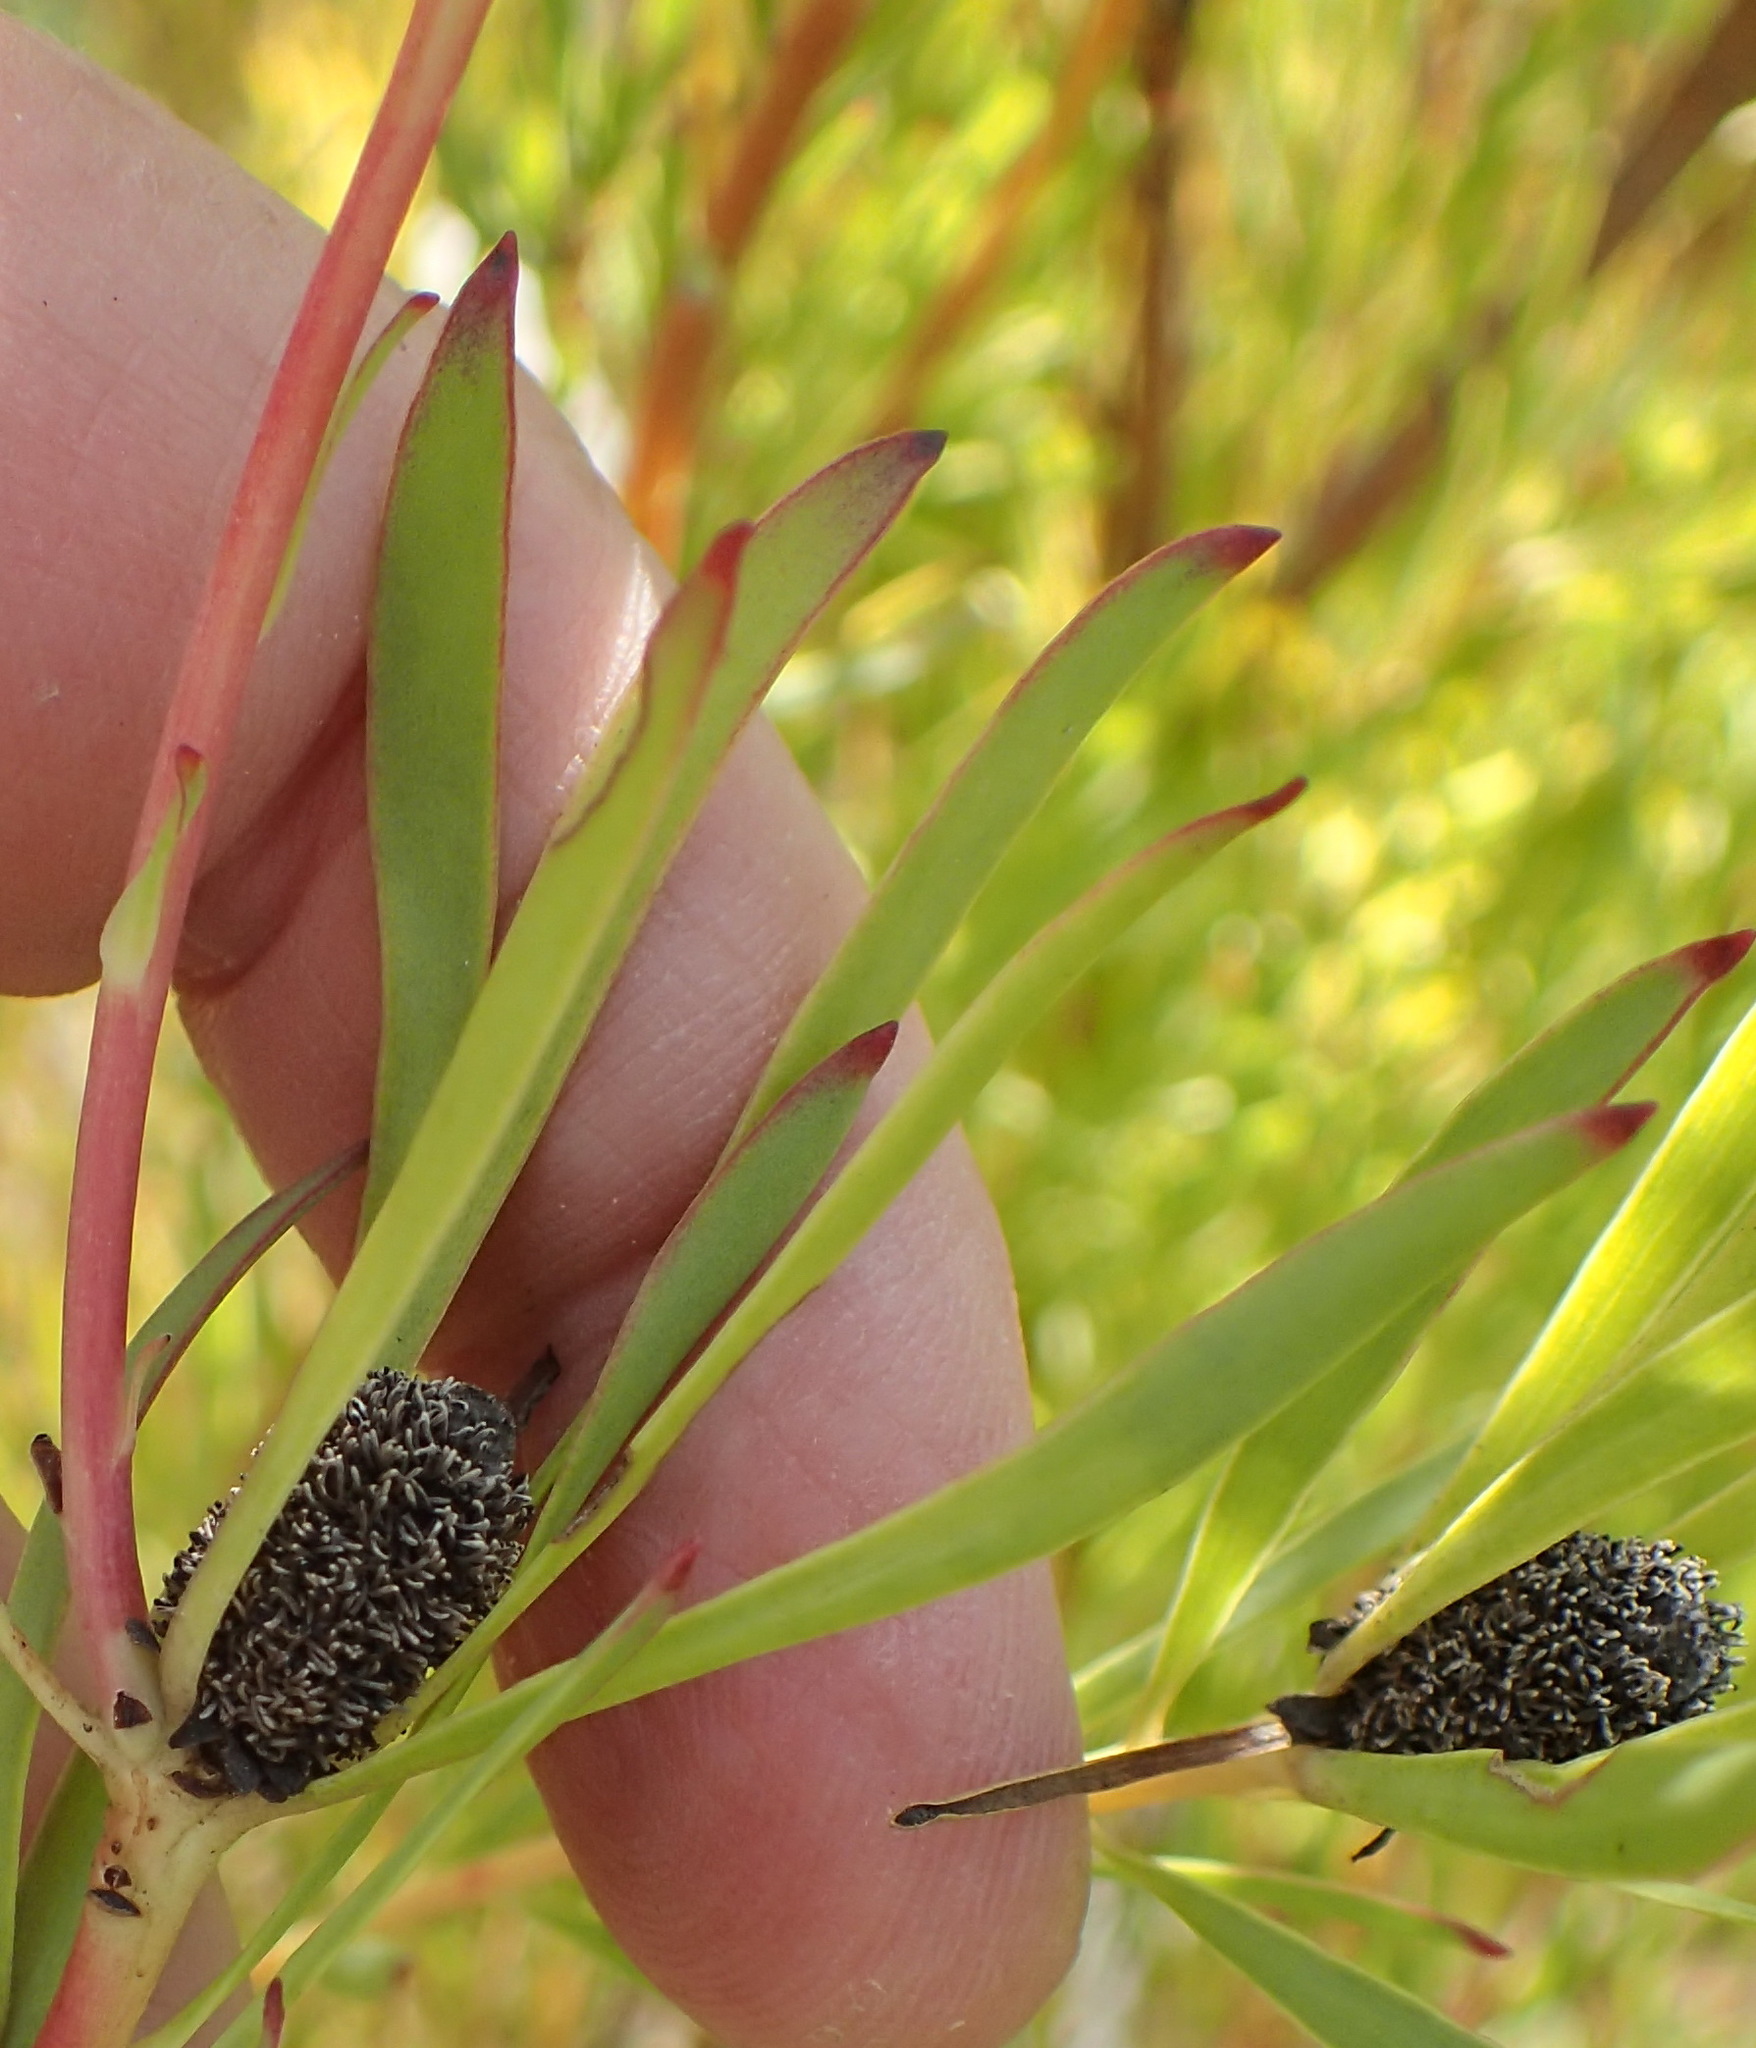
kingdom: Plantae
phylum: Tracheophyta
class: Magnoliopsida
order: Proteales
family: Proteaceae
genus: Leucadendron
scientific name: Leucadendron salignum
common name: Common sunshine conebush
